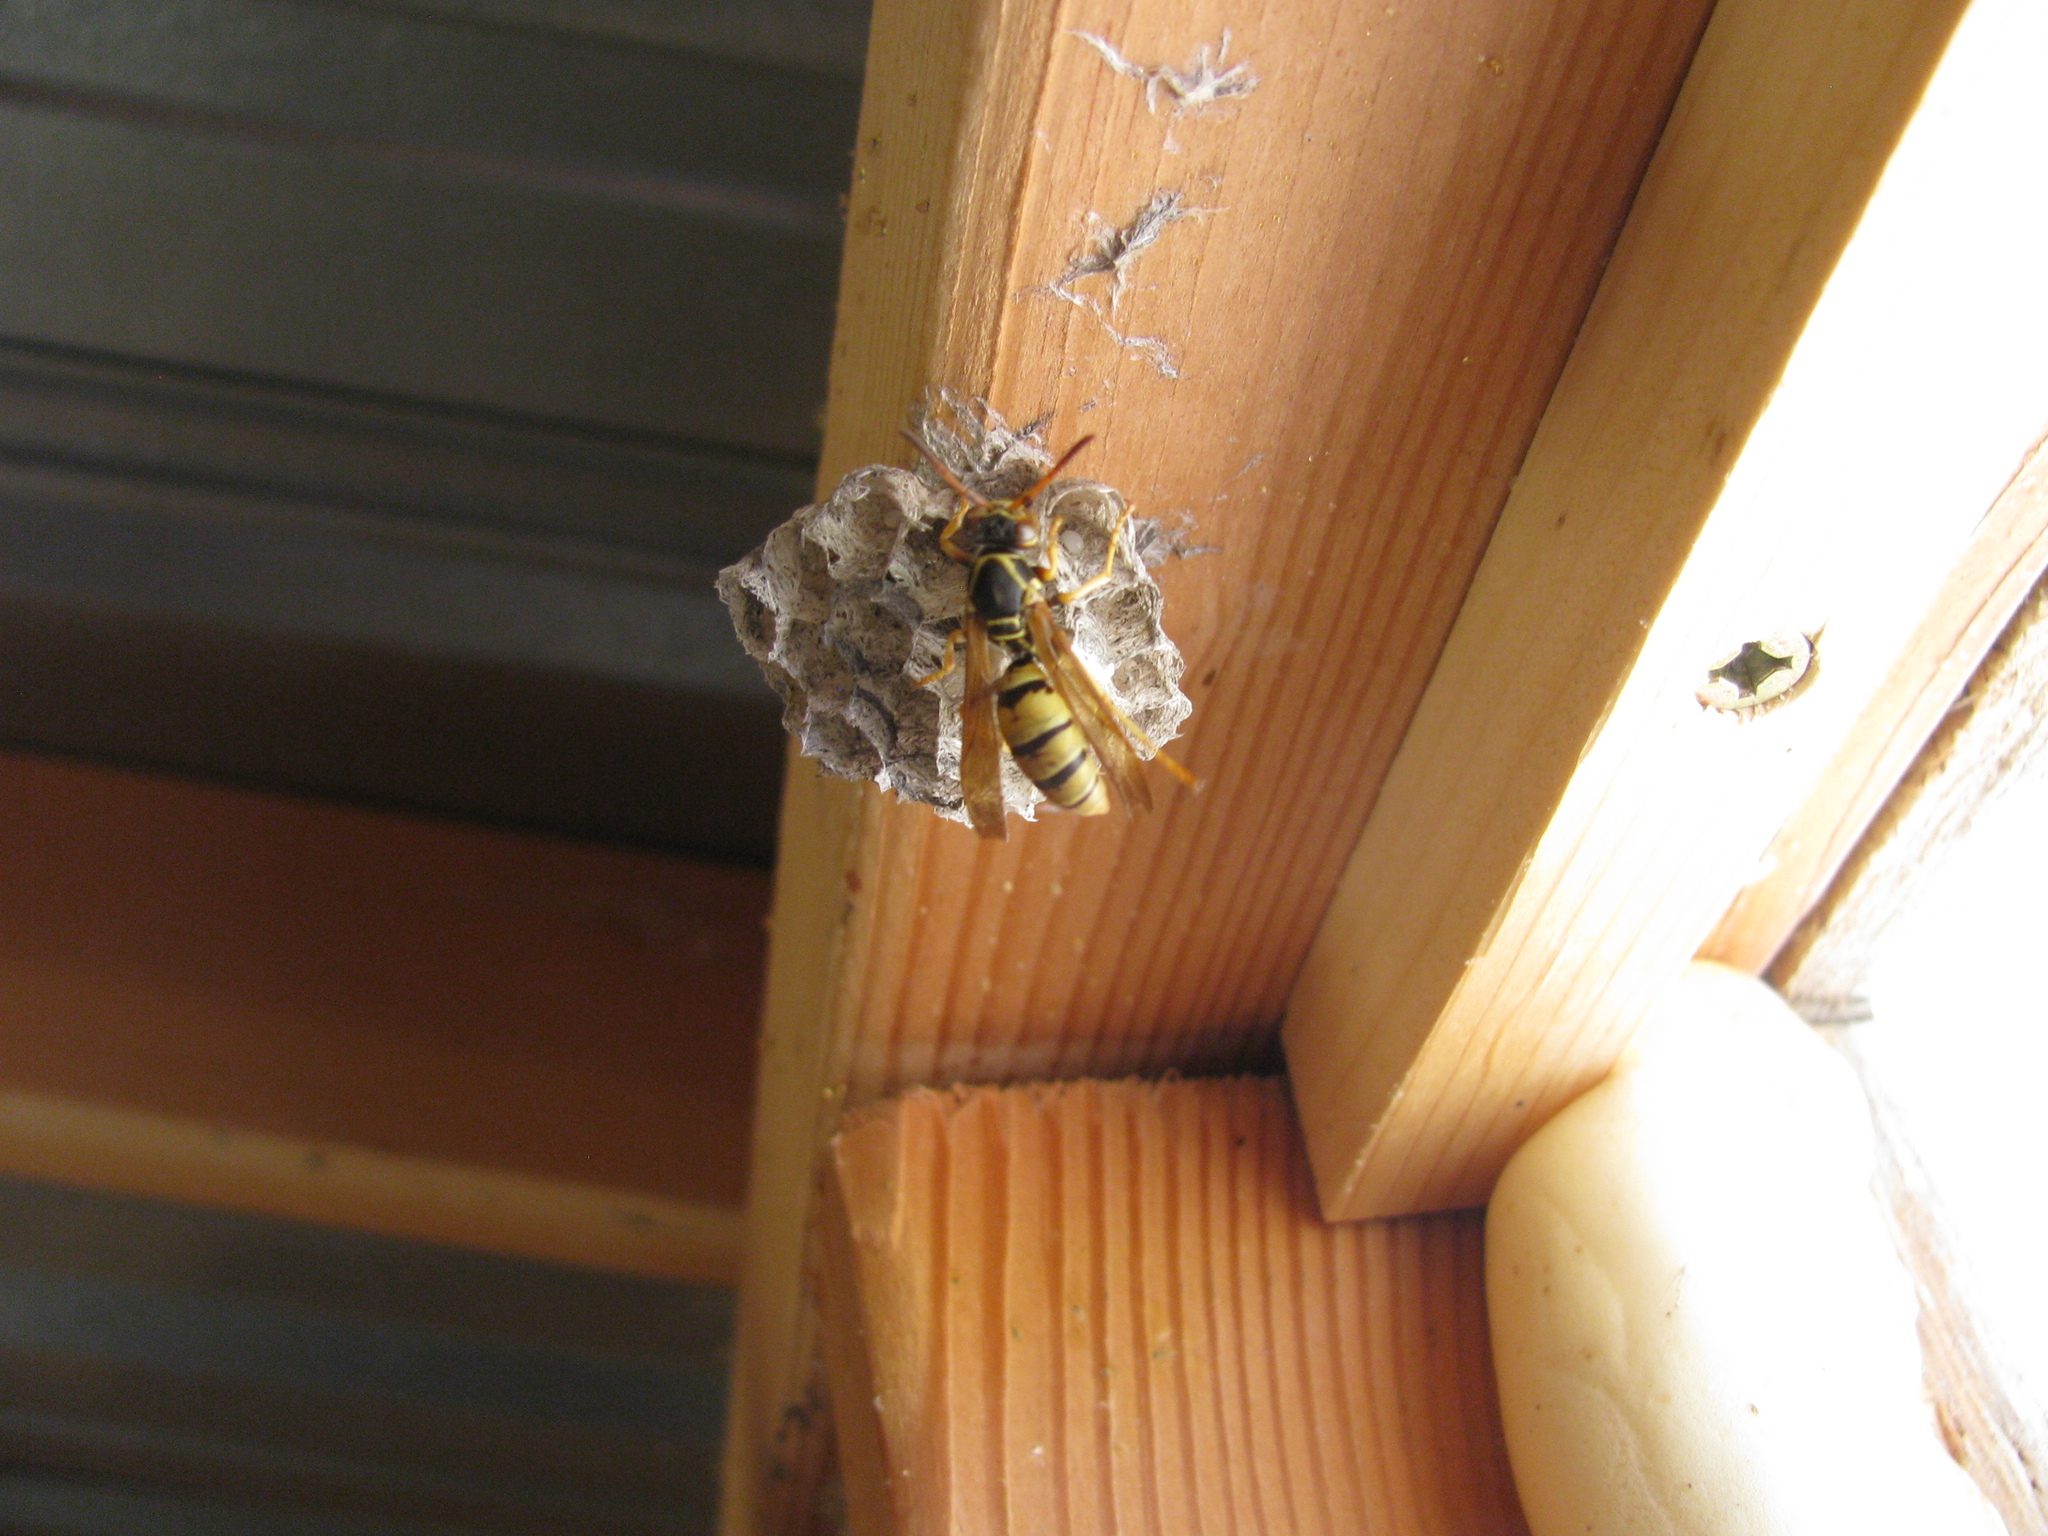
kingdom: Animalia
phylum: Arthropoda
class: Insecta
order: Hymenoptera
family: Eumenidae
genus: Polistes
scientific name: Polistes aurifer
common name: Paper wasp
